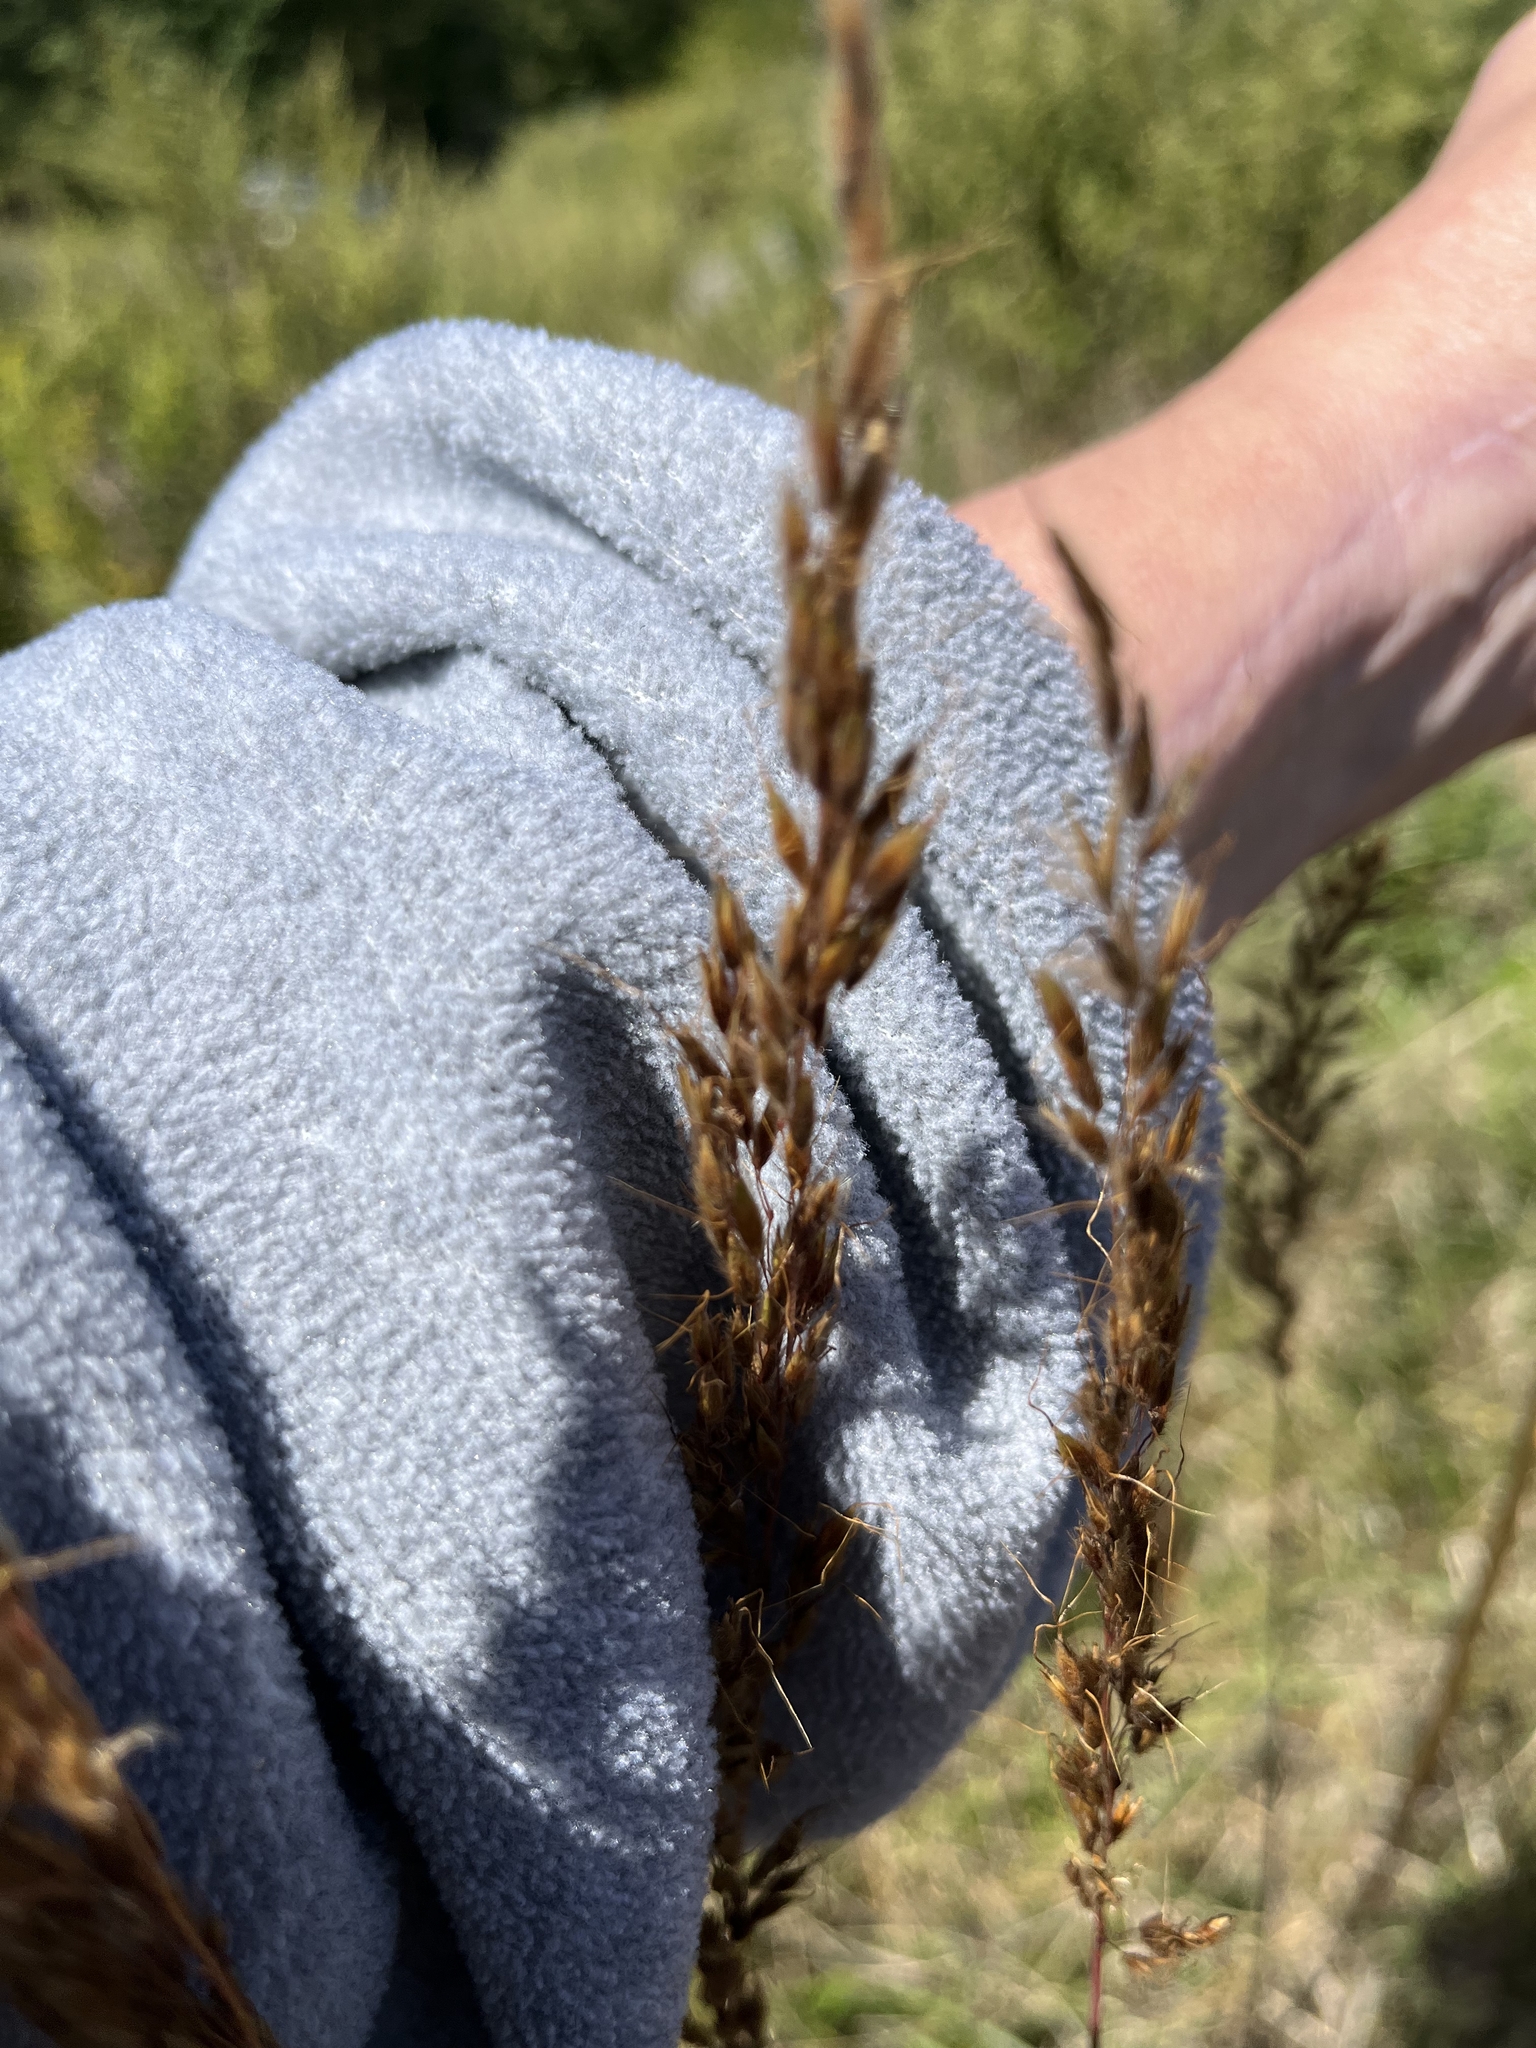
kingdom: Plantae
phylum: Tracheophyta
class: Liliopsida
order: Poales
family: Poaceae
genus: Sorghastrum
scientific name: Sorghastrum nutans
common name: Indian grass
